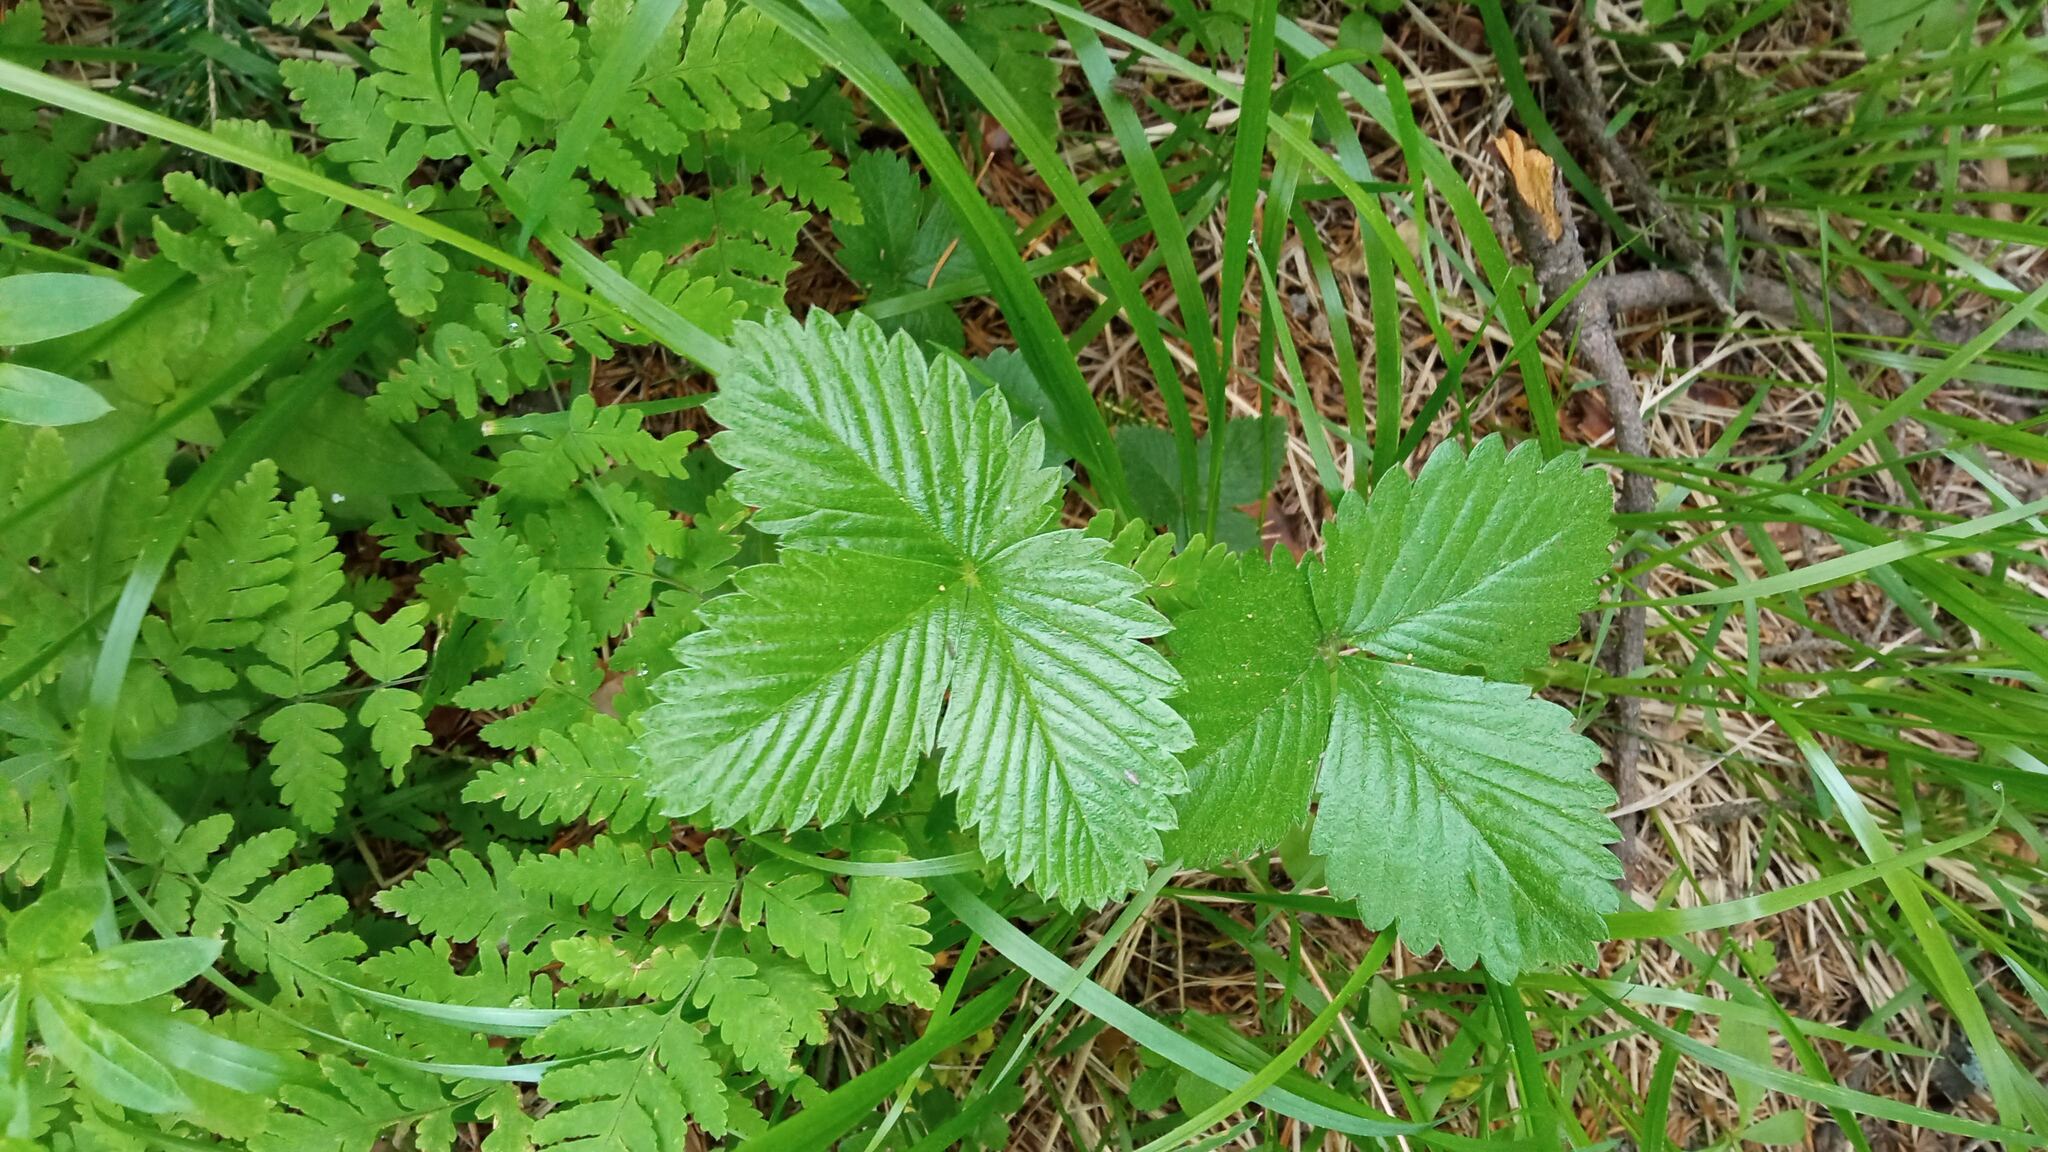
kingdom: Plantae
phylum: Tracheophyta
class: Magnoliopsida
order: Rosales
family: Rosaceae
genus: Fragaria
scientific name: Fragaria vesca
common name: Wild strawberry
